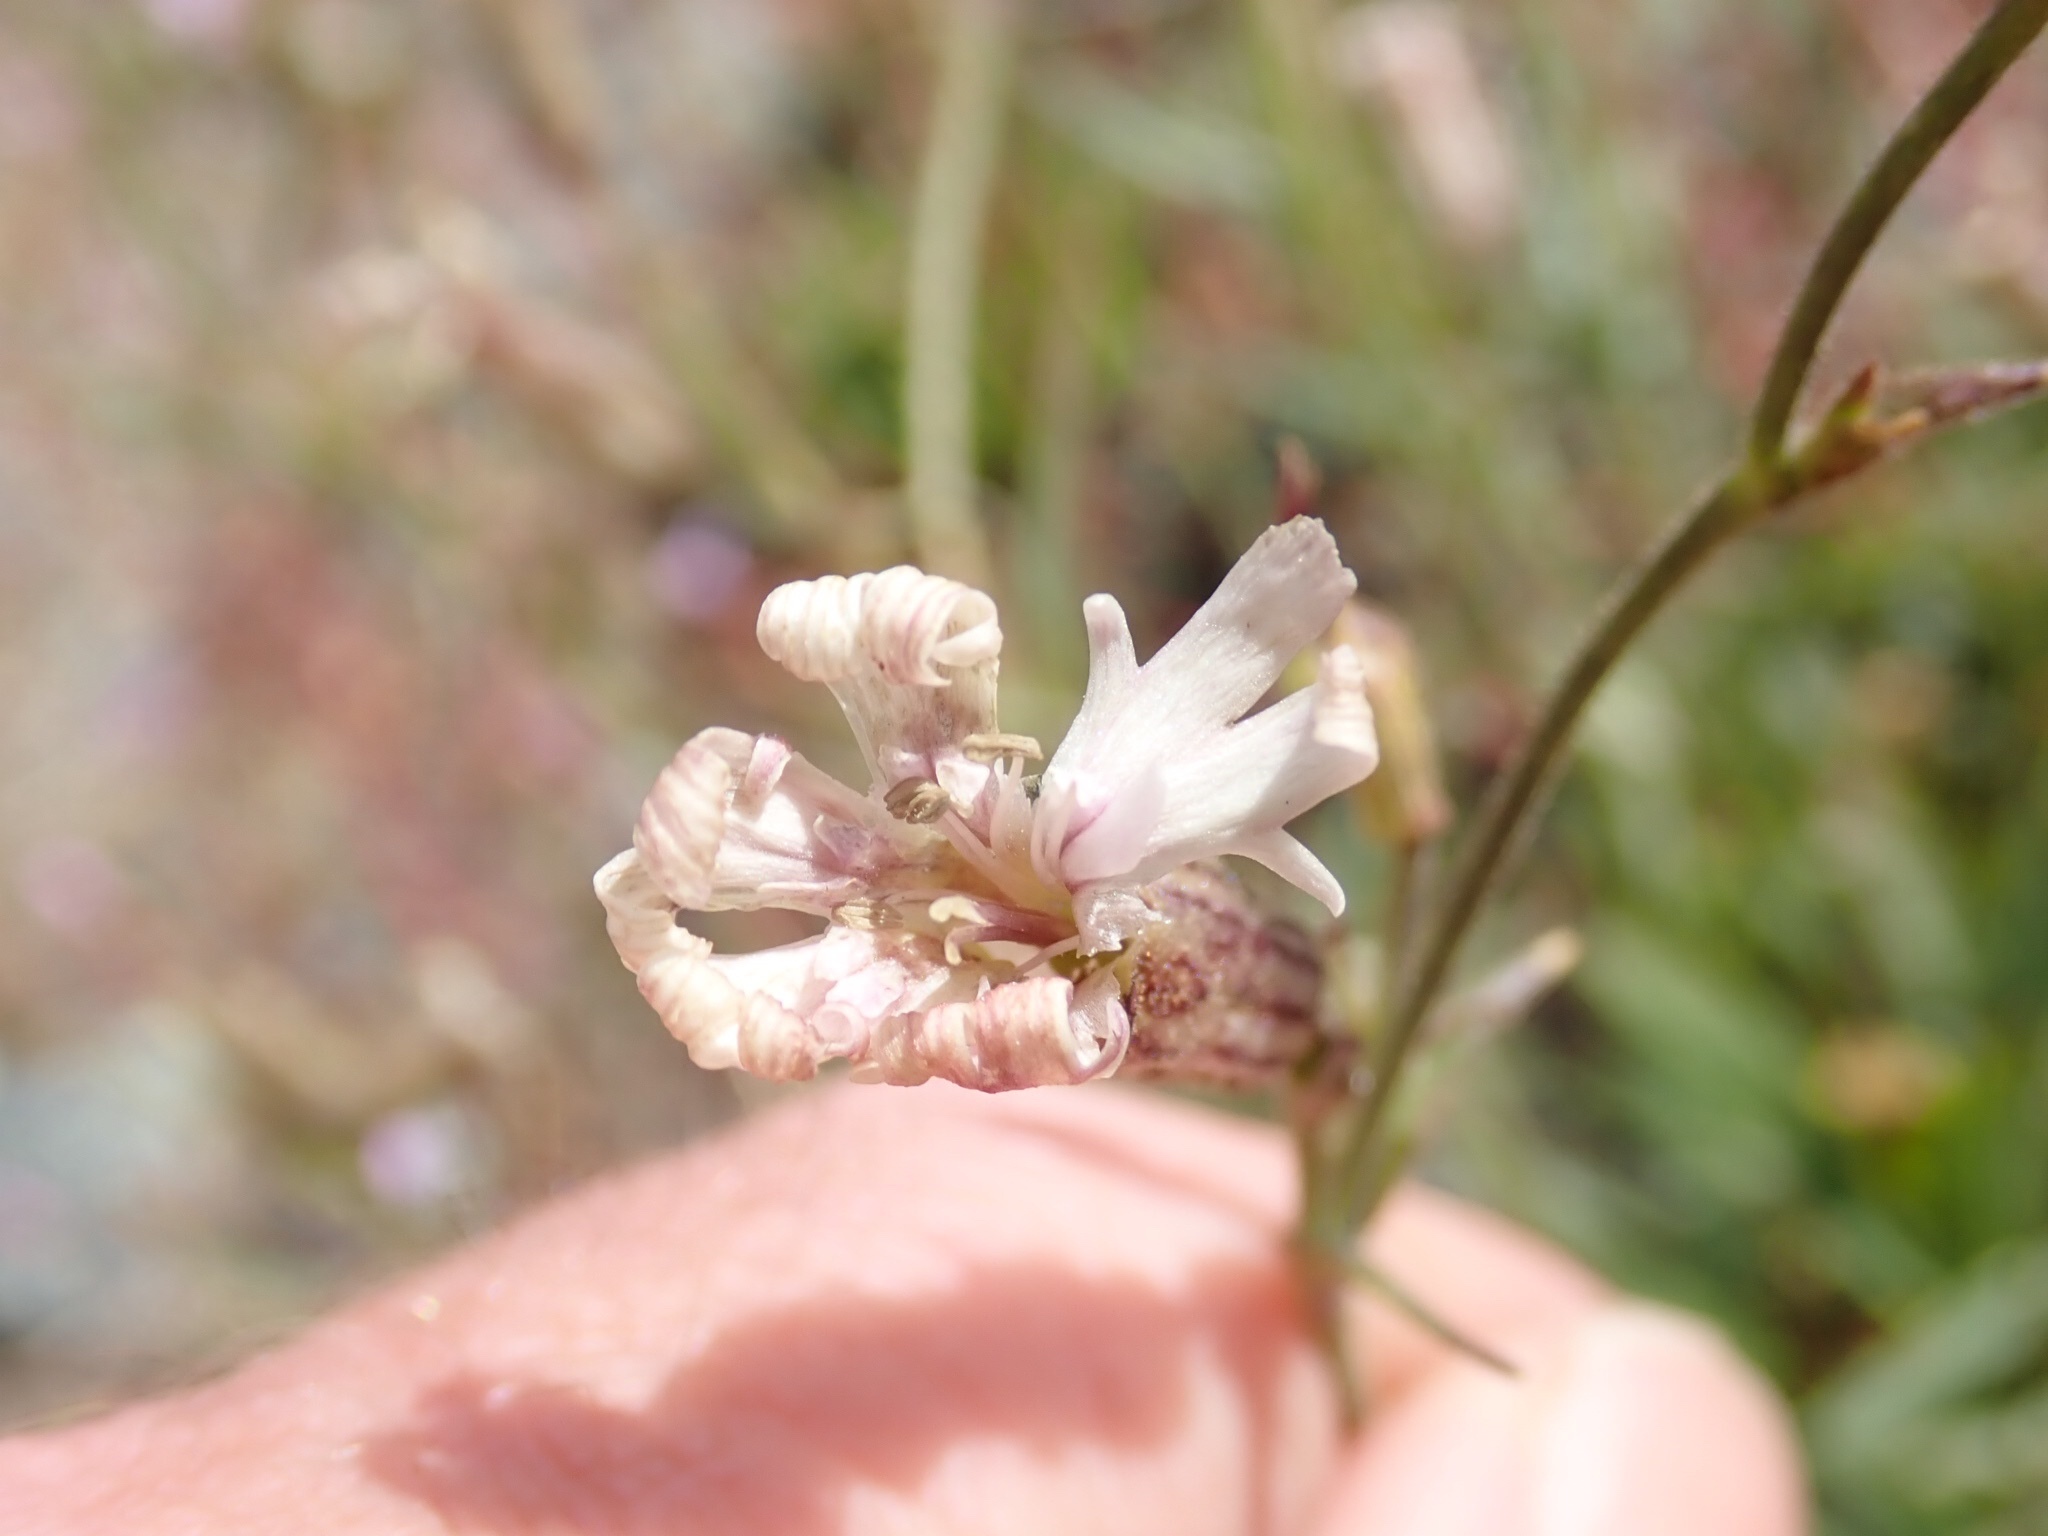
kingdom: Plantae
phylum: Tracheophyta
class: Magnoliopsida
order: Caryophyllales
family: Caryophyllaceae
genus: Silene
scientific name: Silene douglasii
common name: Douglas's catchfly
